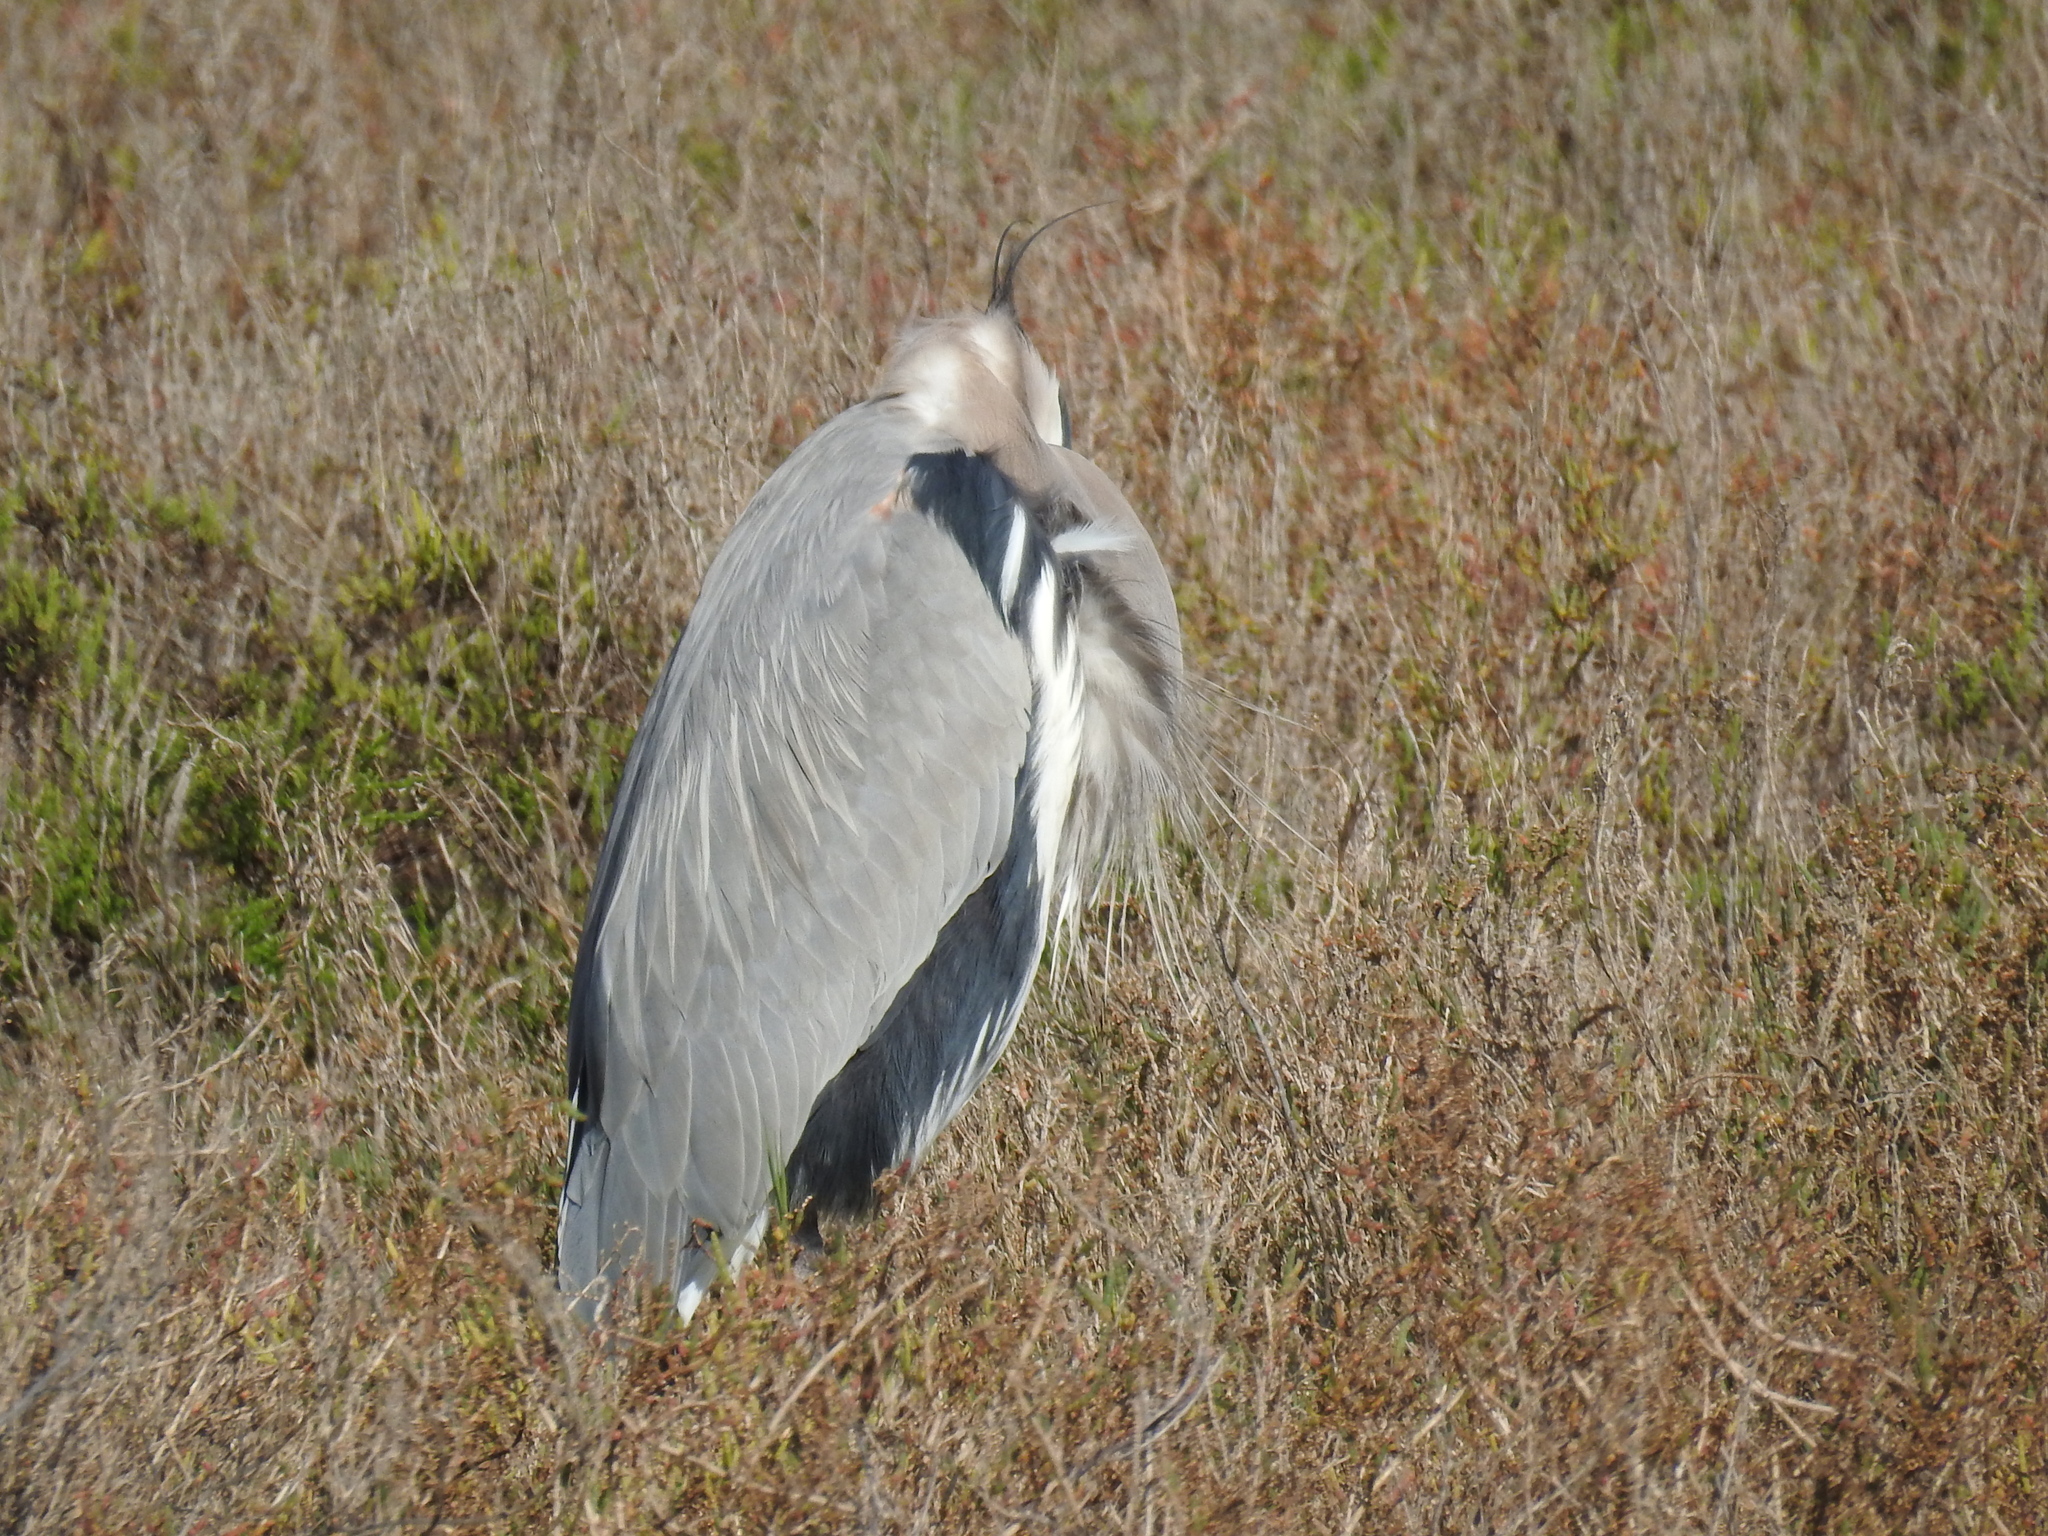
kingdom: Animalia
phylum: Chordata
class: Aves
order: Pelecaniformes
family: Ardeidae
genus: Ardea
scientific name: Ardea herodias
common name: Great blue heron
